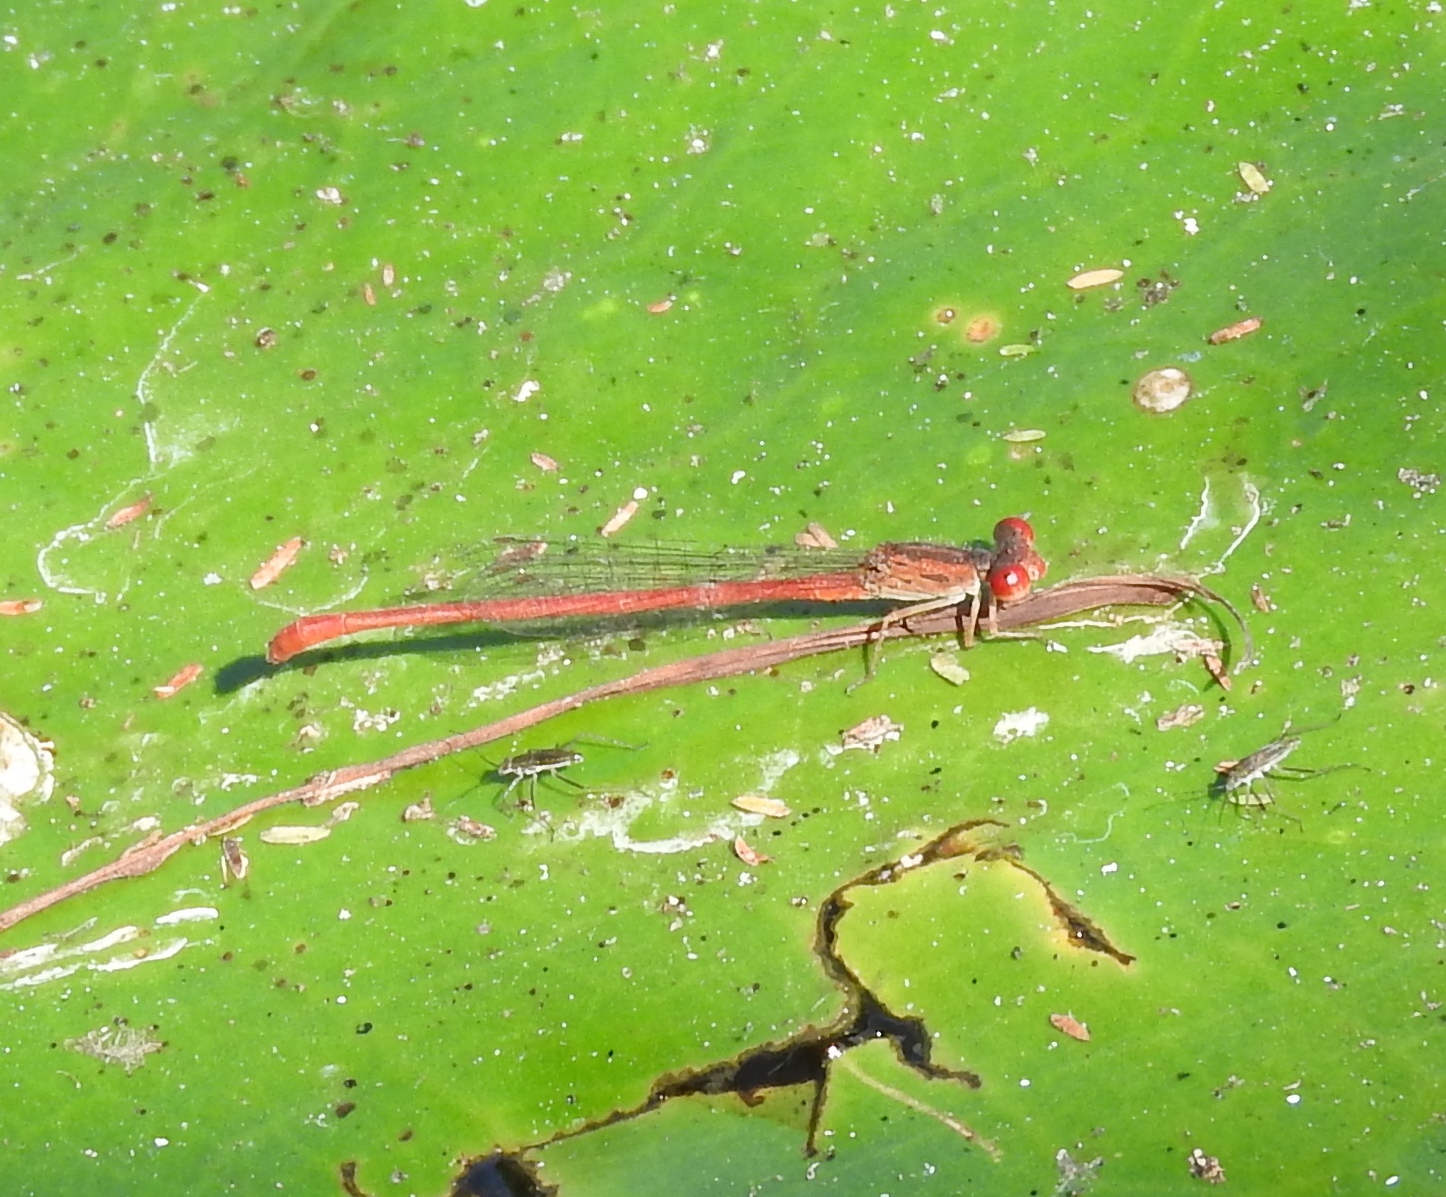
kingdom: Animalia
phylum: Arthropoda
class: Insecta
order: Odonata
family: Coenagrionidae
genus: Telebasis
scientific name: Telebasis salva
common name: Desert firetail
